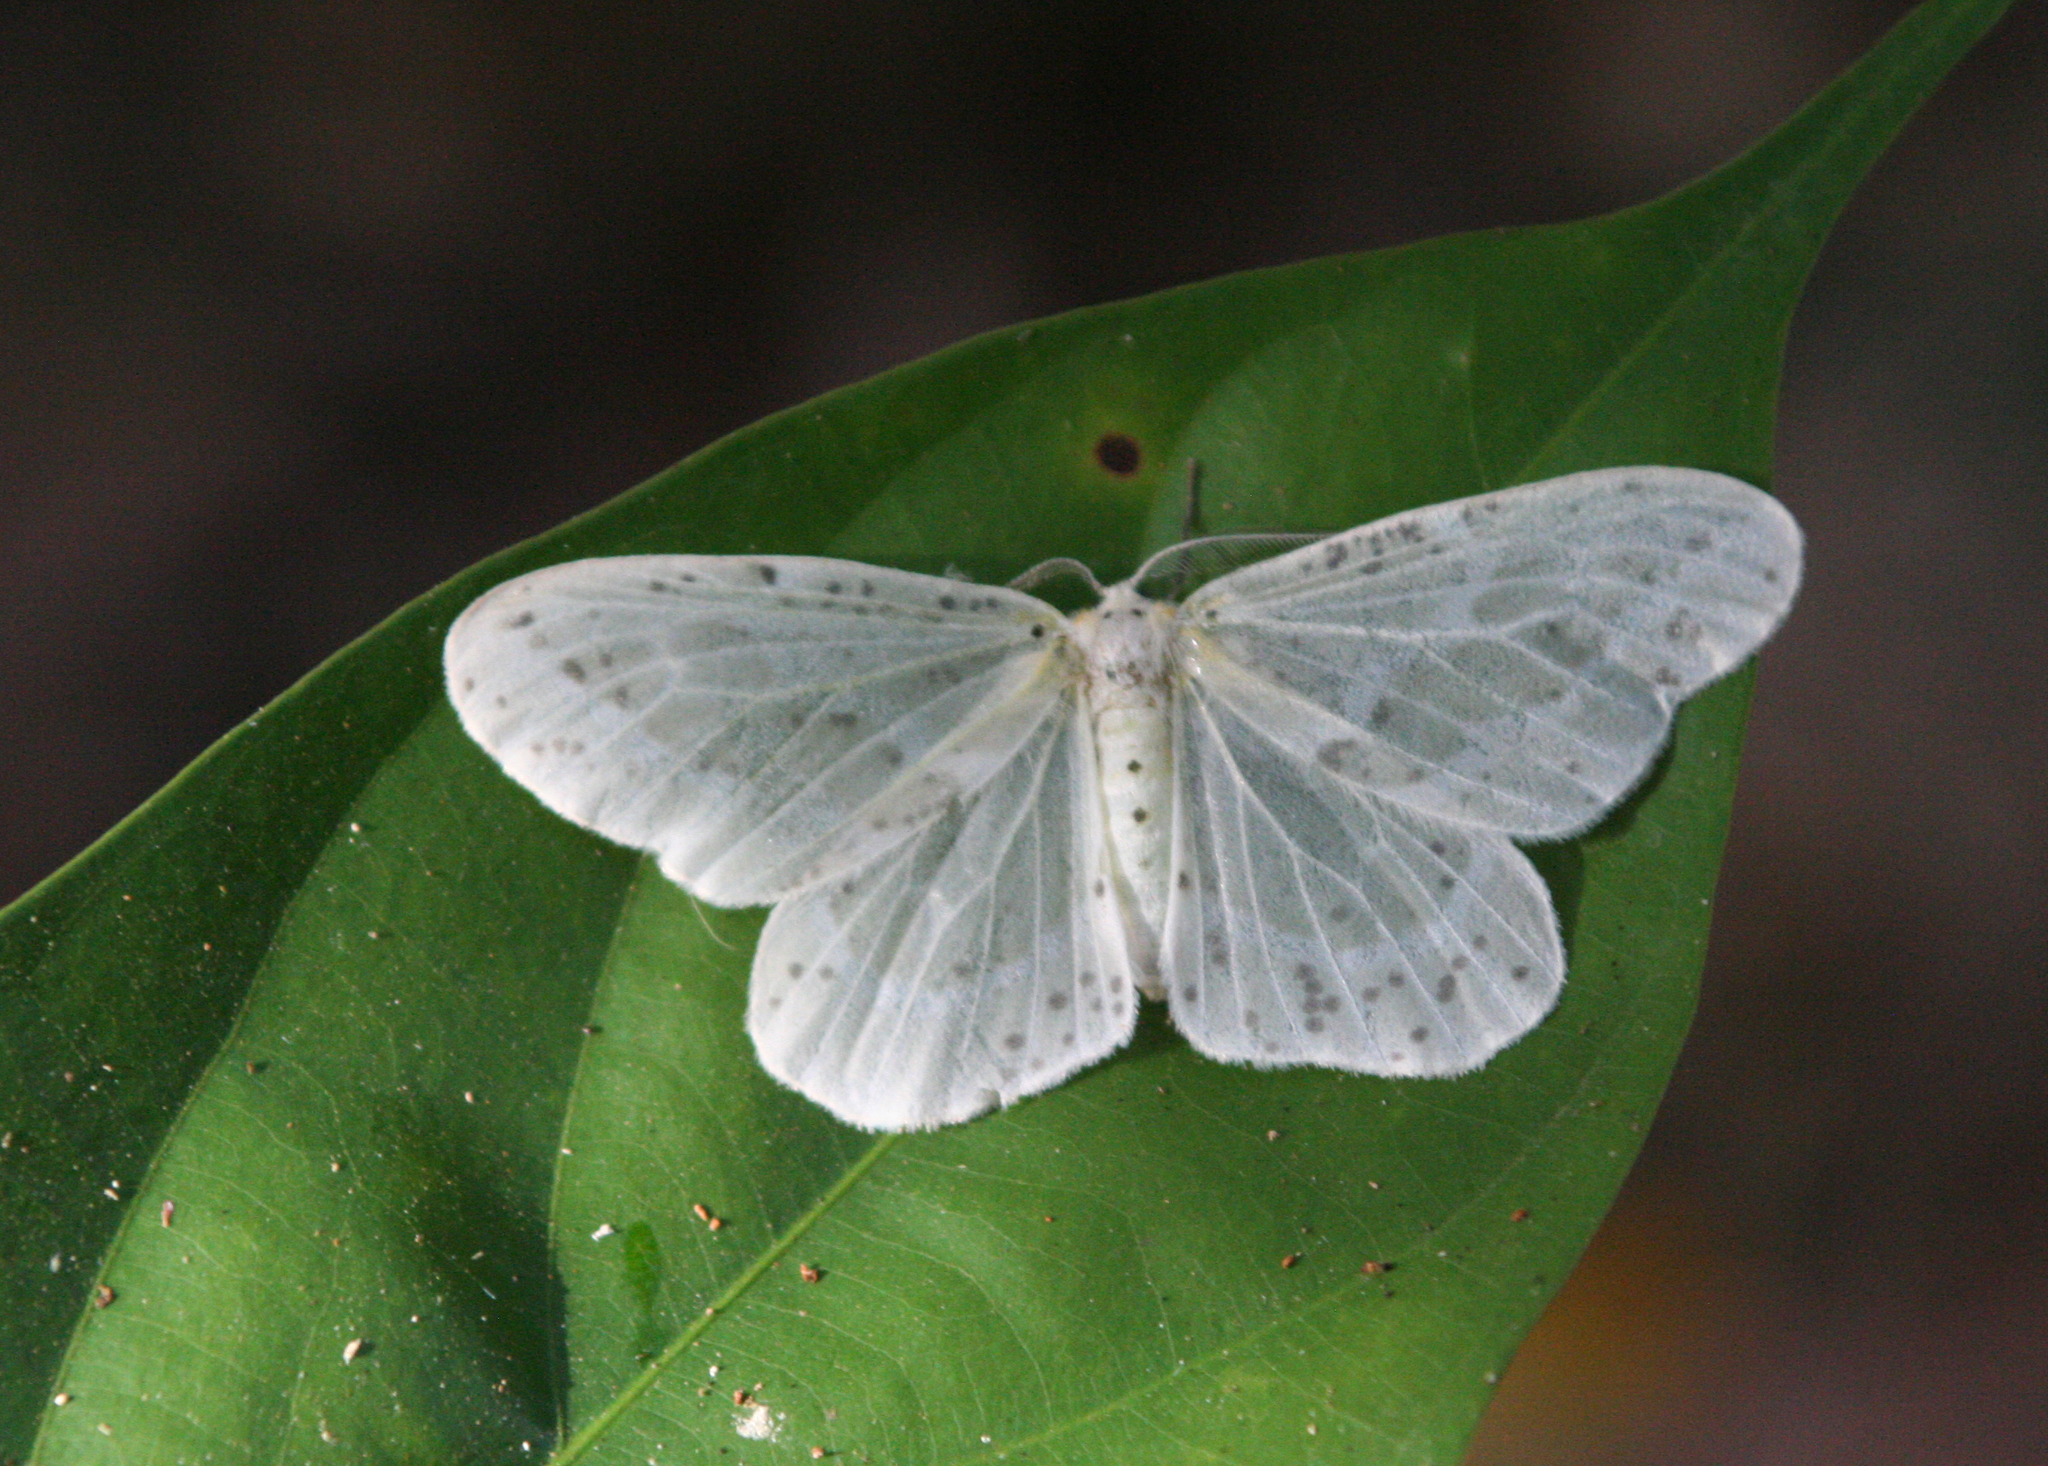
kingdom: Animalia
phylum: Arthropoda
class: Insecta
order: Lepidoptera
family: Geometridae
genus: Genusa
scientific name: Genusa bigutta
